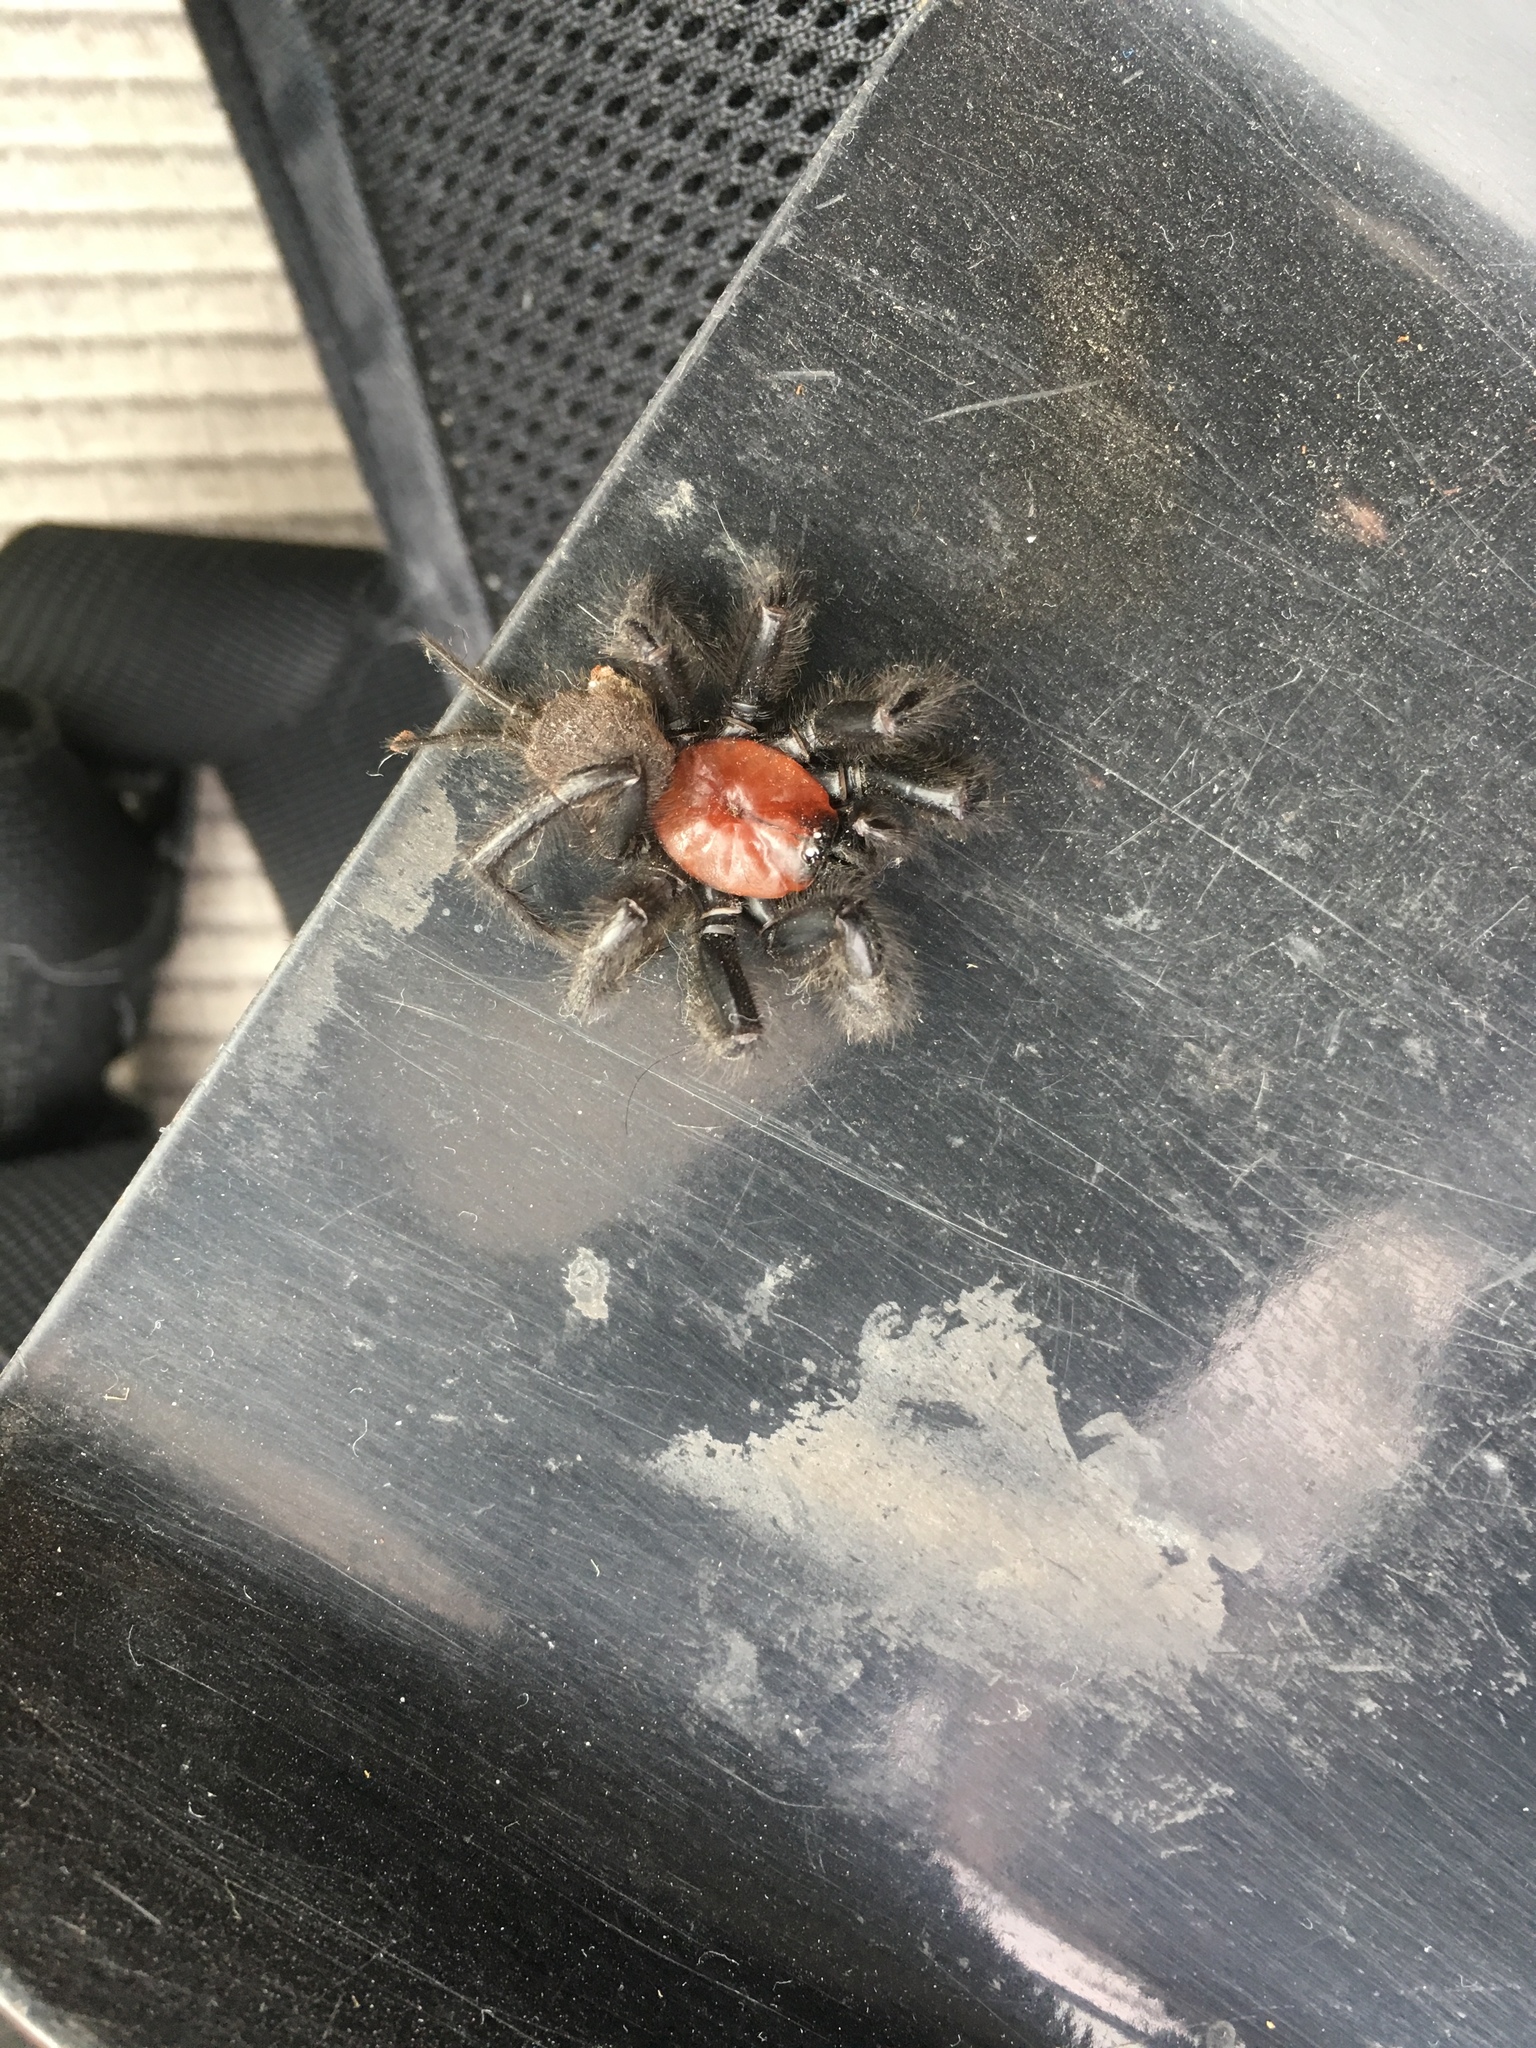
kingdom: Animalia
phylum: Arthropoda
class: Arachnida
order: Araneae
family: Porrhothelidae
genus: Porrhothele
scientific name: Porrhothele antipodiana
